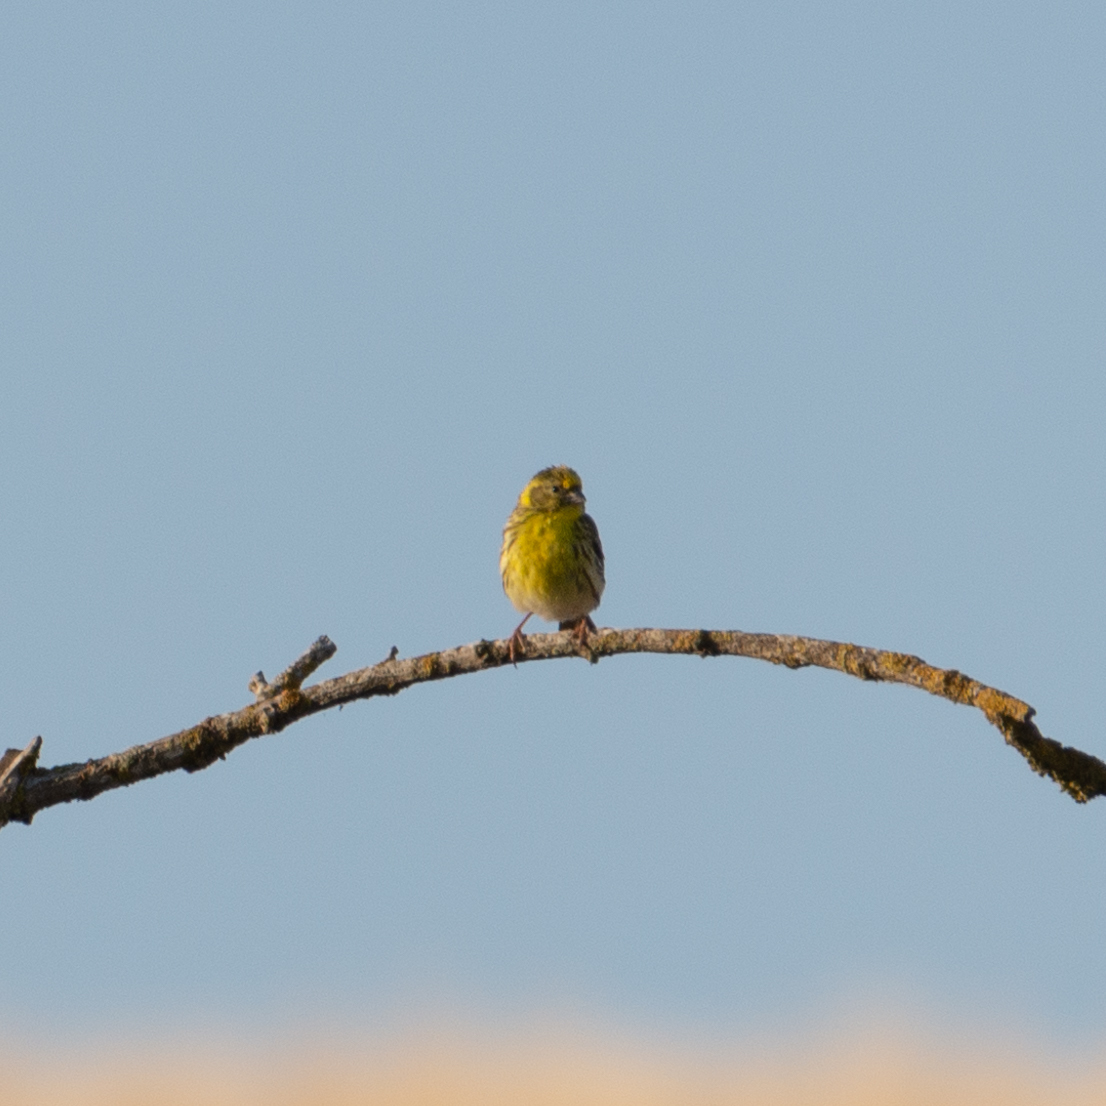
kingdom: Animalia
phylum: Chordata
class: Aves
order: Passeriformes
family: Fringillidae
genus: Serinus
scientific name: Serinus serinus
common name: European serin
